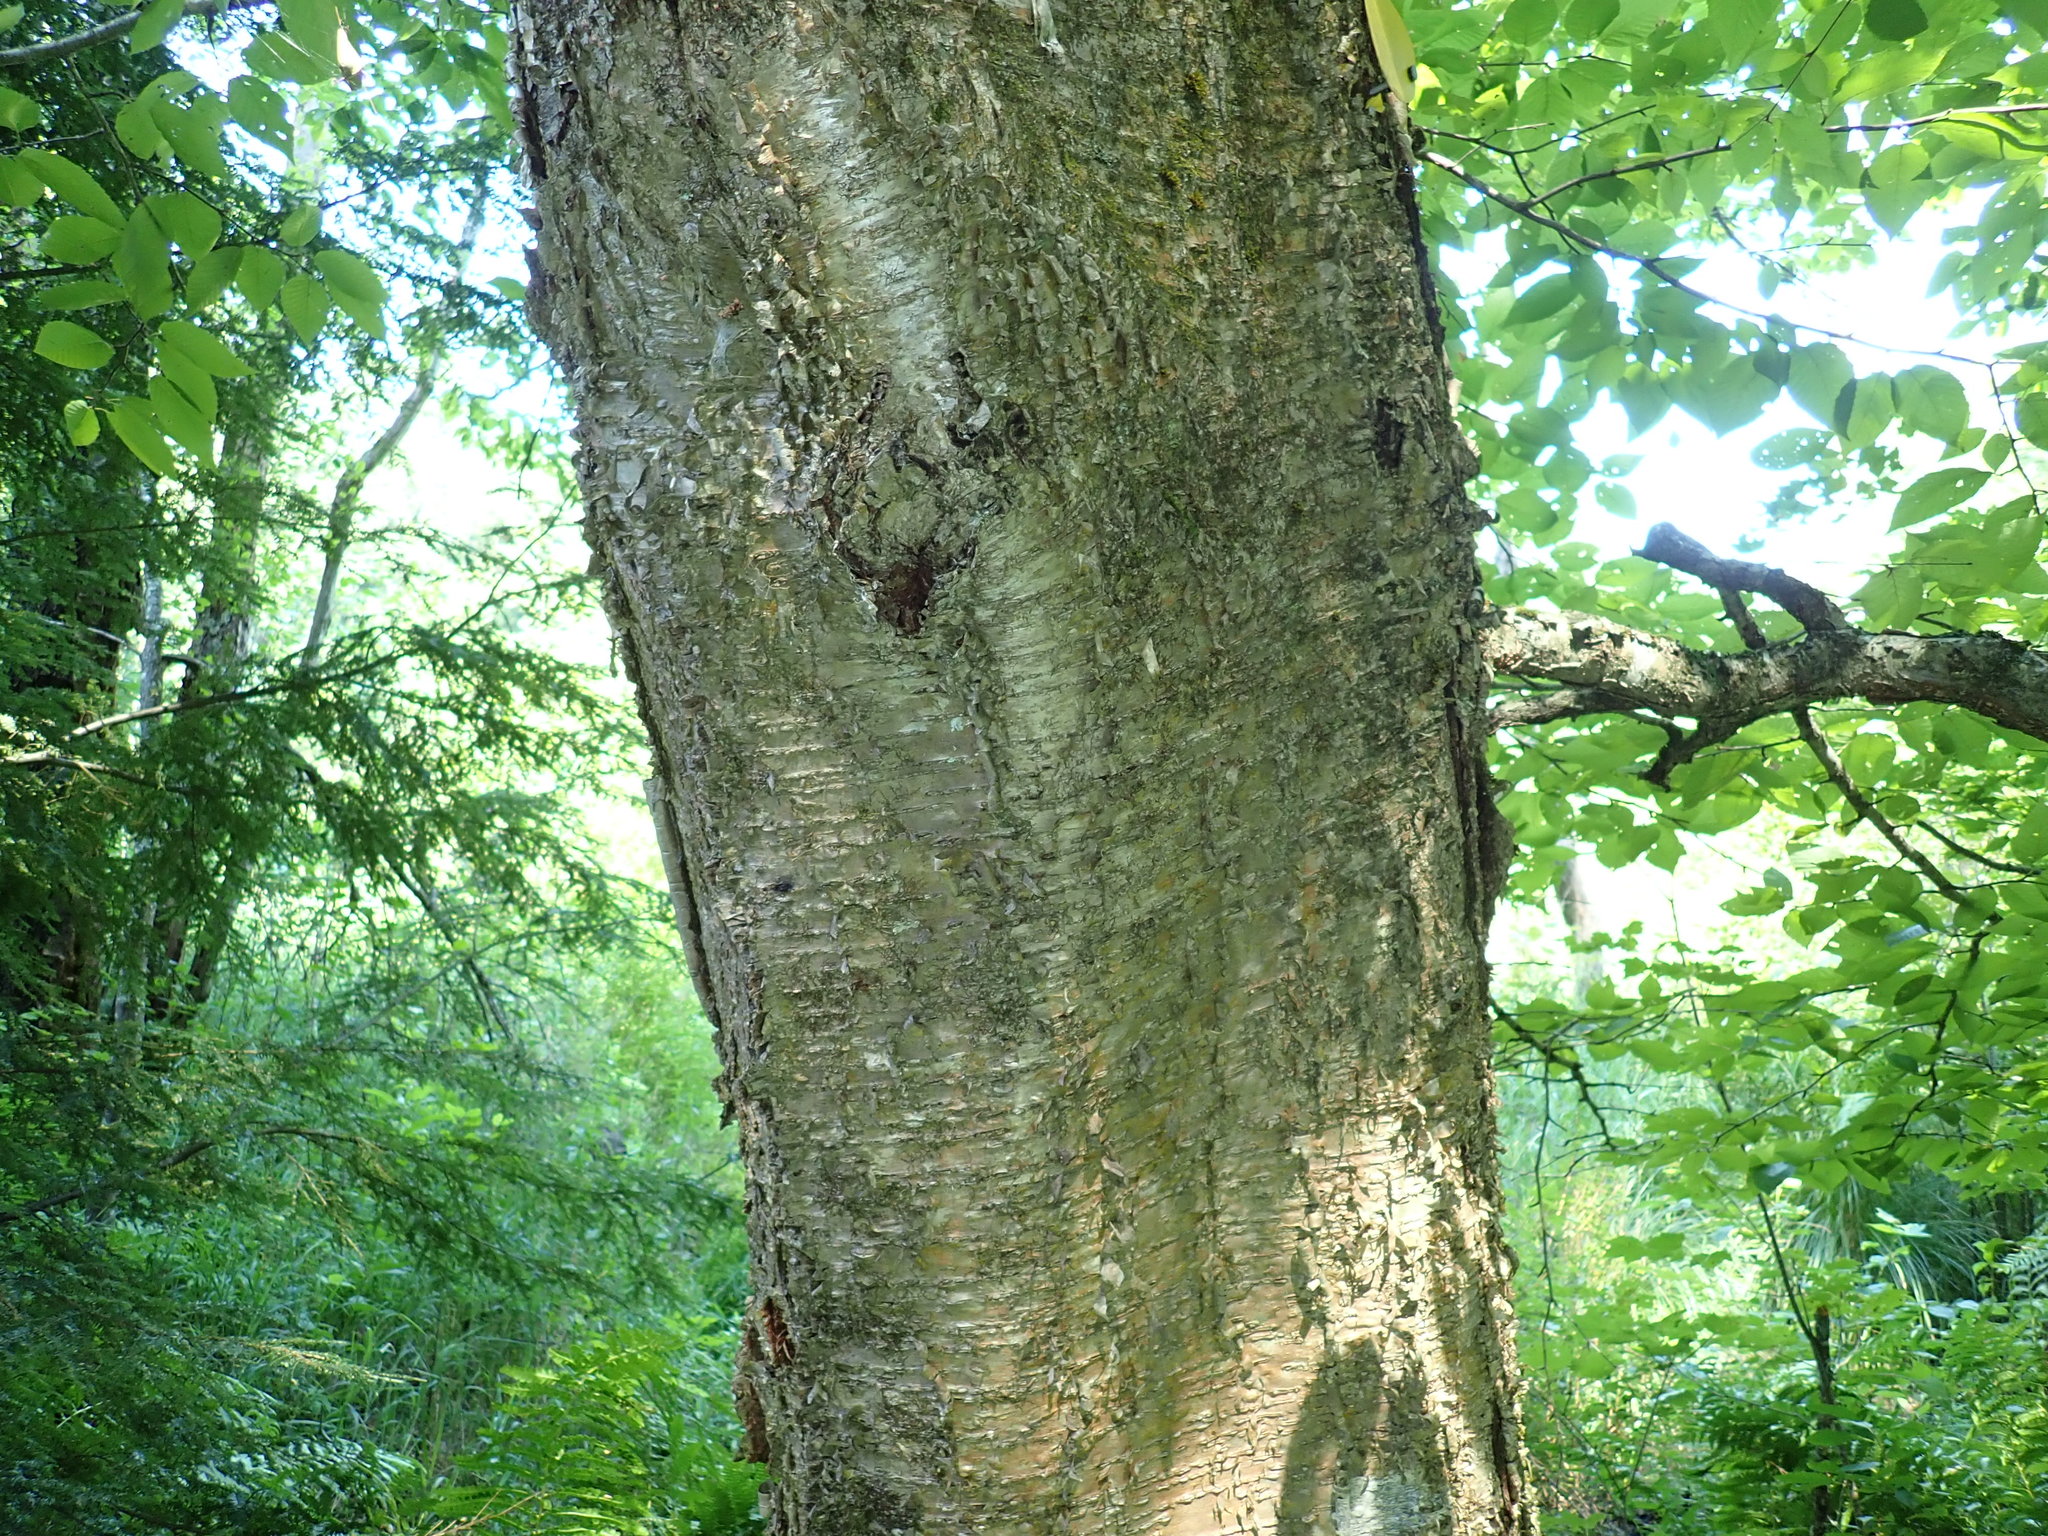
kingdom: Plantae
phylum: Tracheophyta
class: Magnoliopsida
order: Fagales
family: Betulaceae
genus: Betula
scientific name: Betula alleghaniensis
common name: Yellow birch
